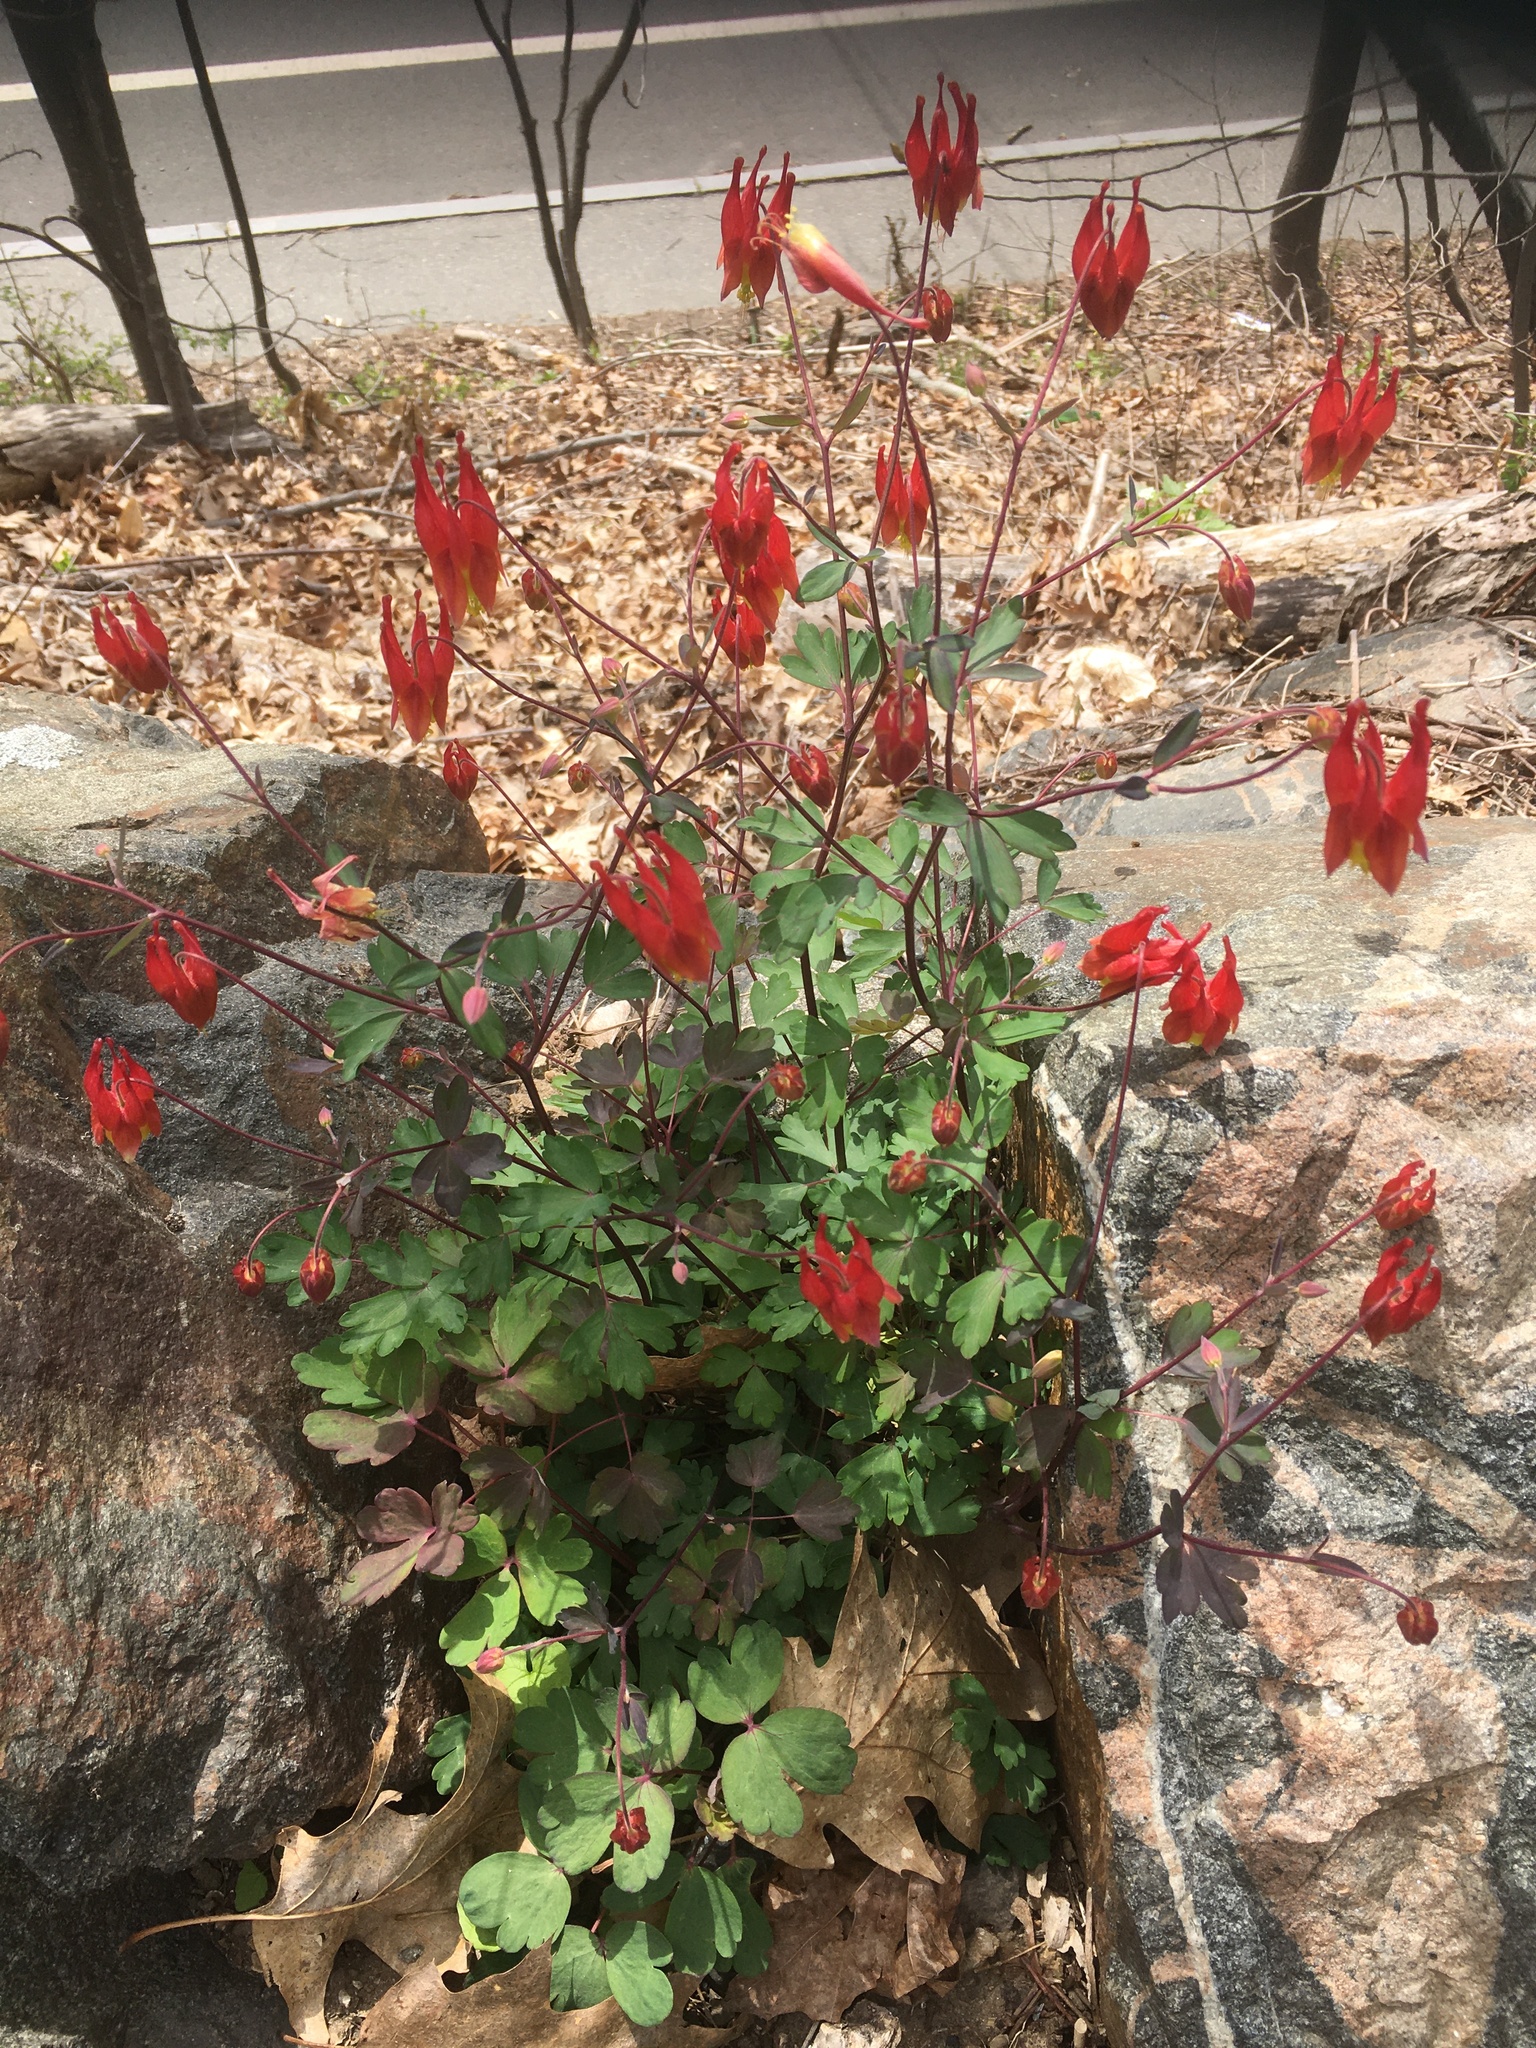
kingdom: Plantae
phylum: Tracheophyta
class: Magnoliopsida
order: Ranunculales
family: Ranunculaceae
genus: Aquilegia
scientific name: Aquilegia canadensis
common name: American columbine
